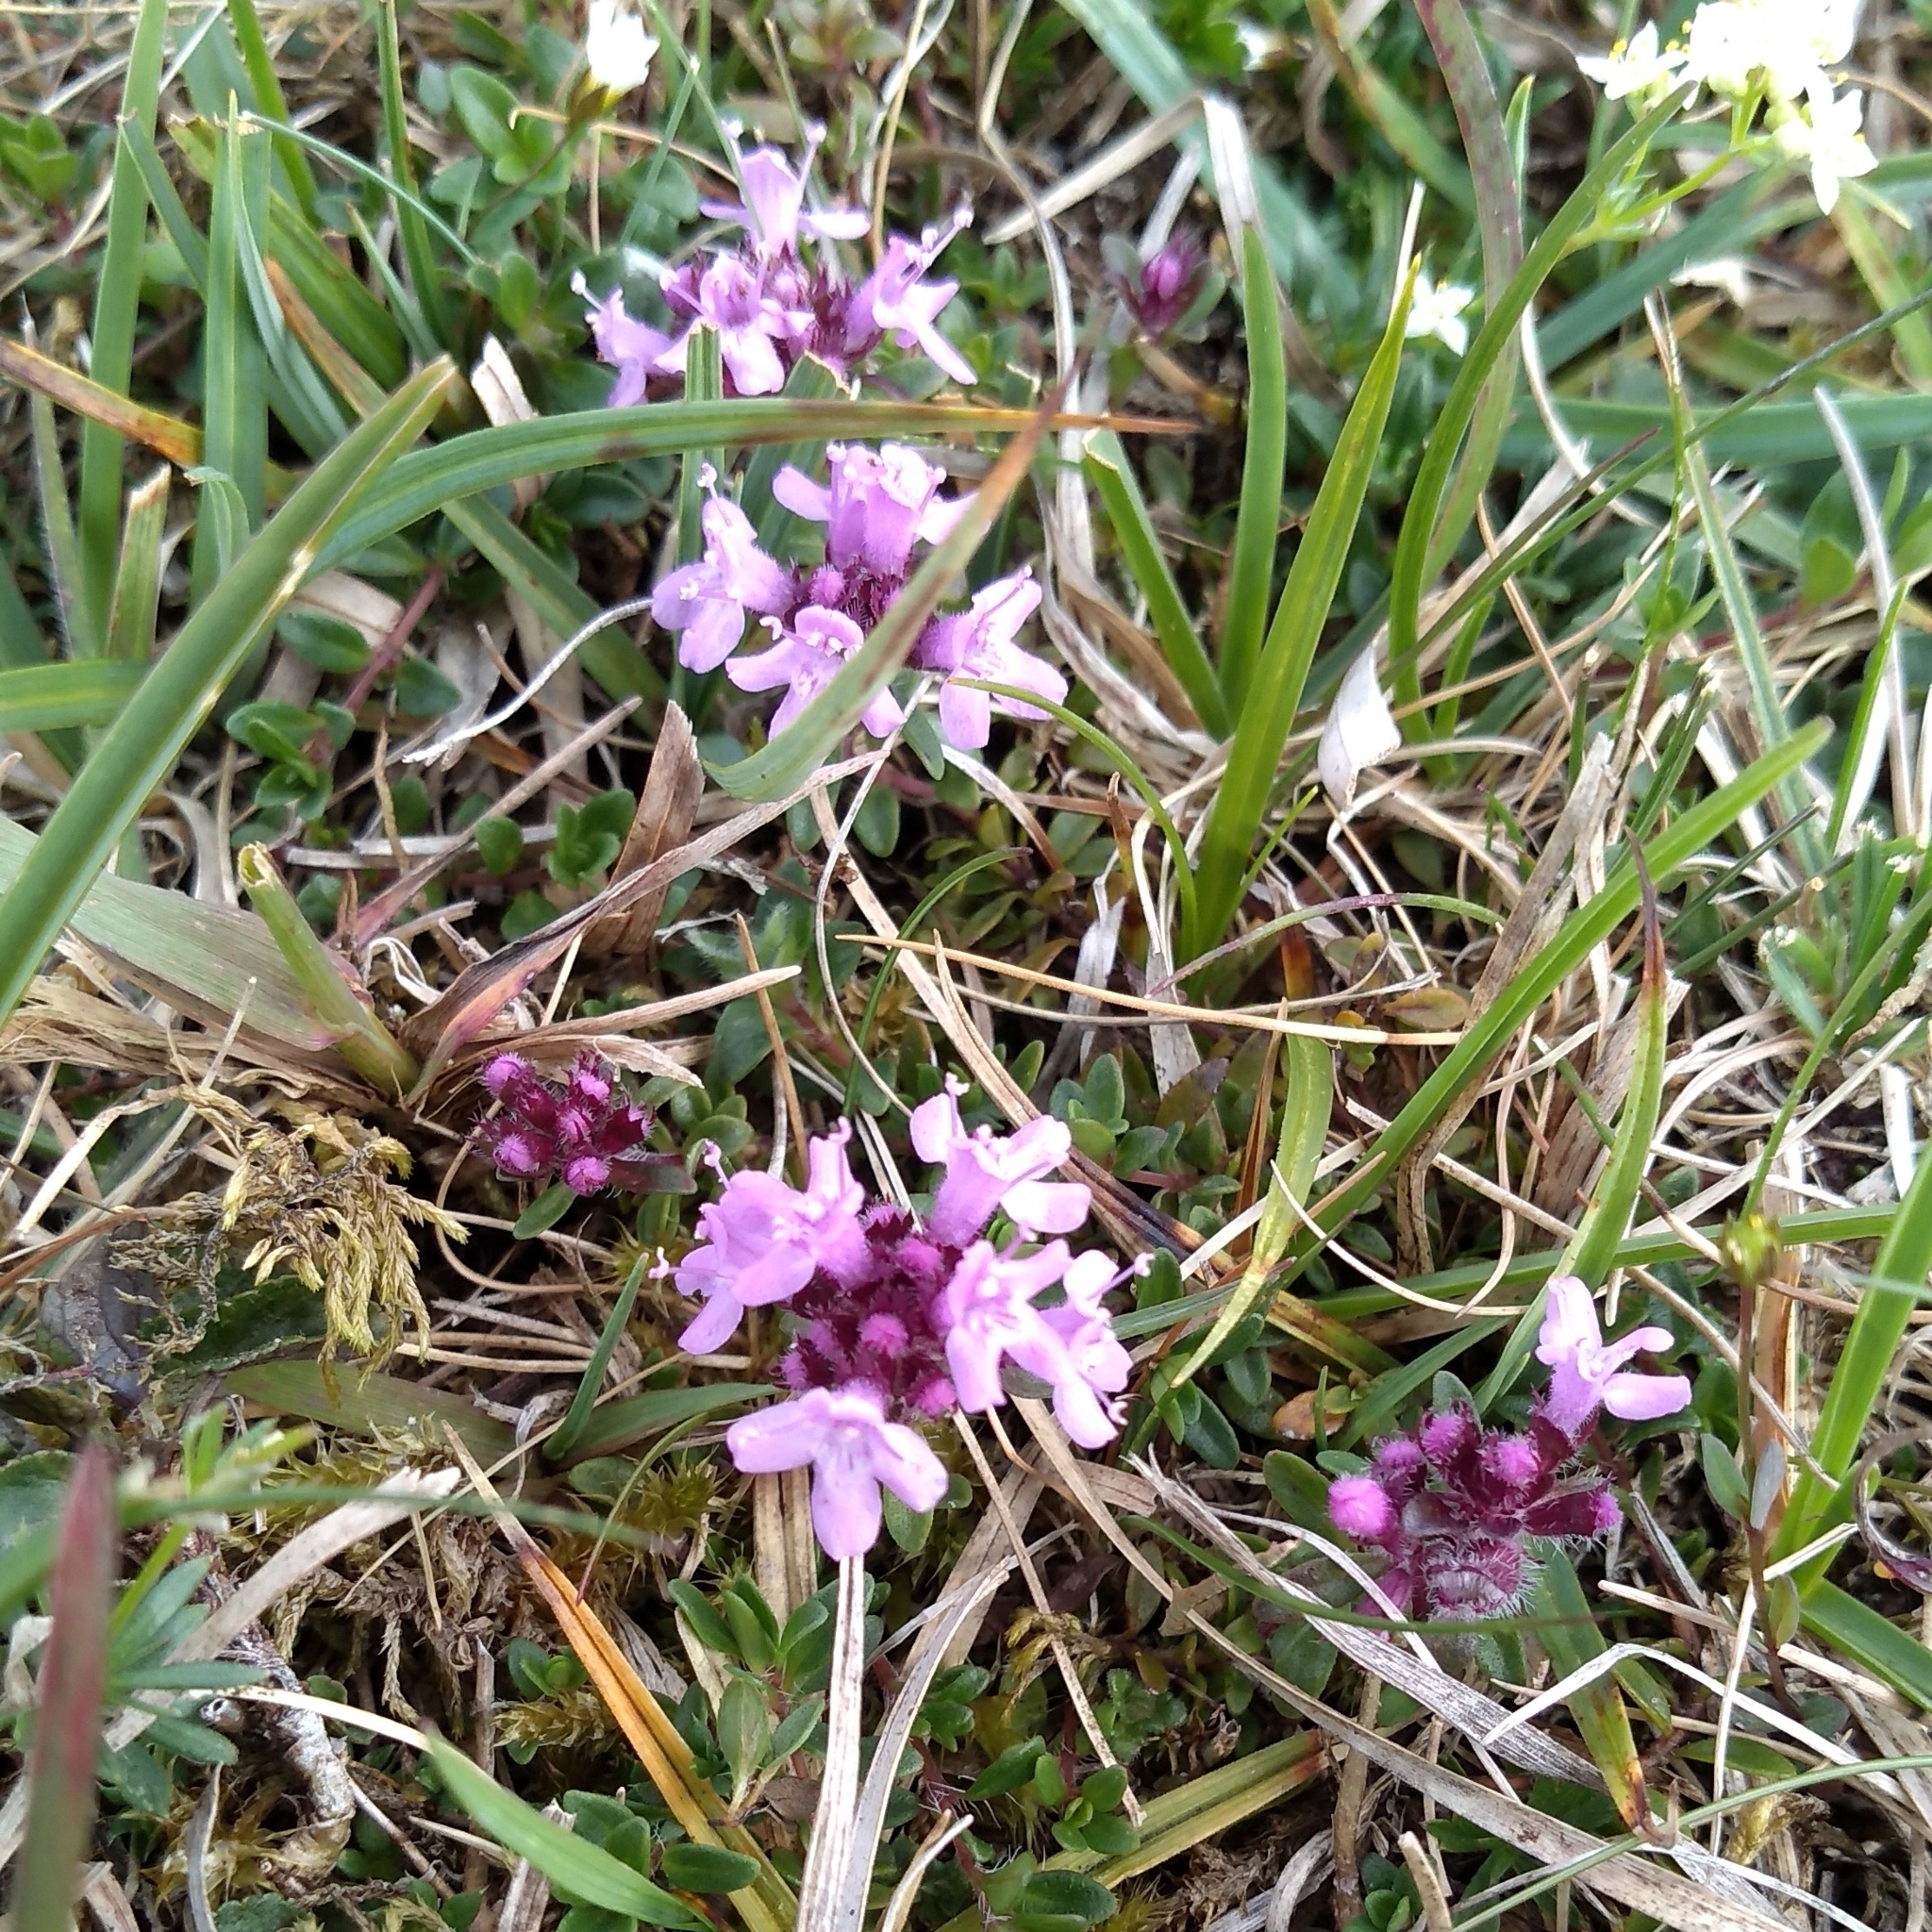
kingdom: Plantae
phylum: Tracheophyta
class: Magnoliopsida
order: Lamiales
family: Lamiaceae
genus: Thymus
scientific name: Thymus praecox
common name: Wild thyme
